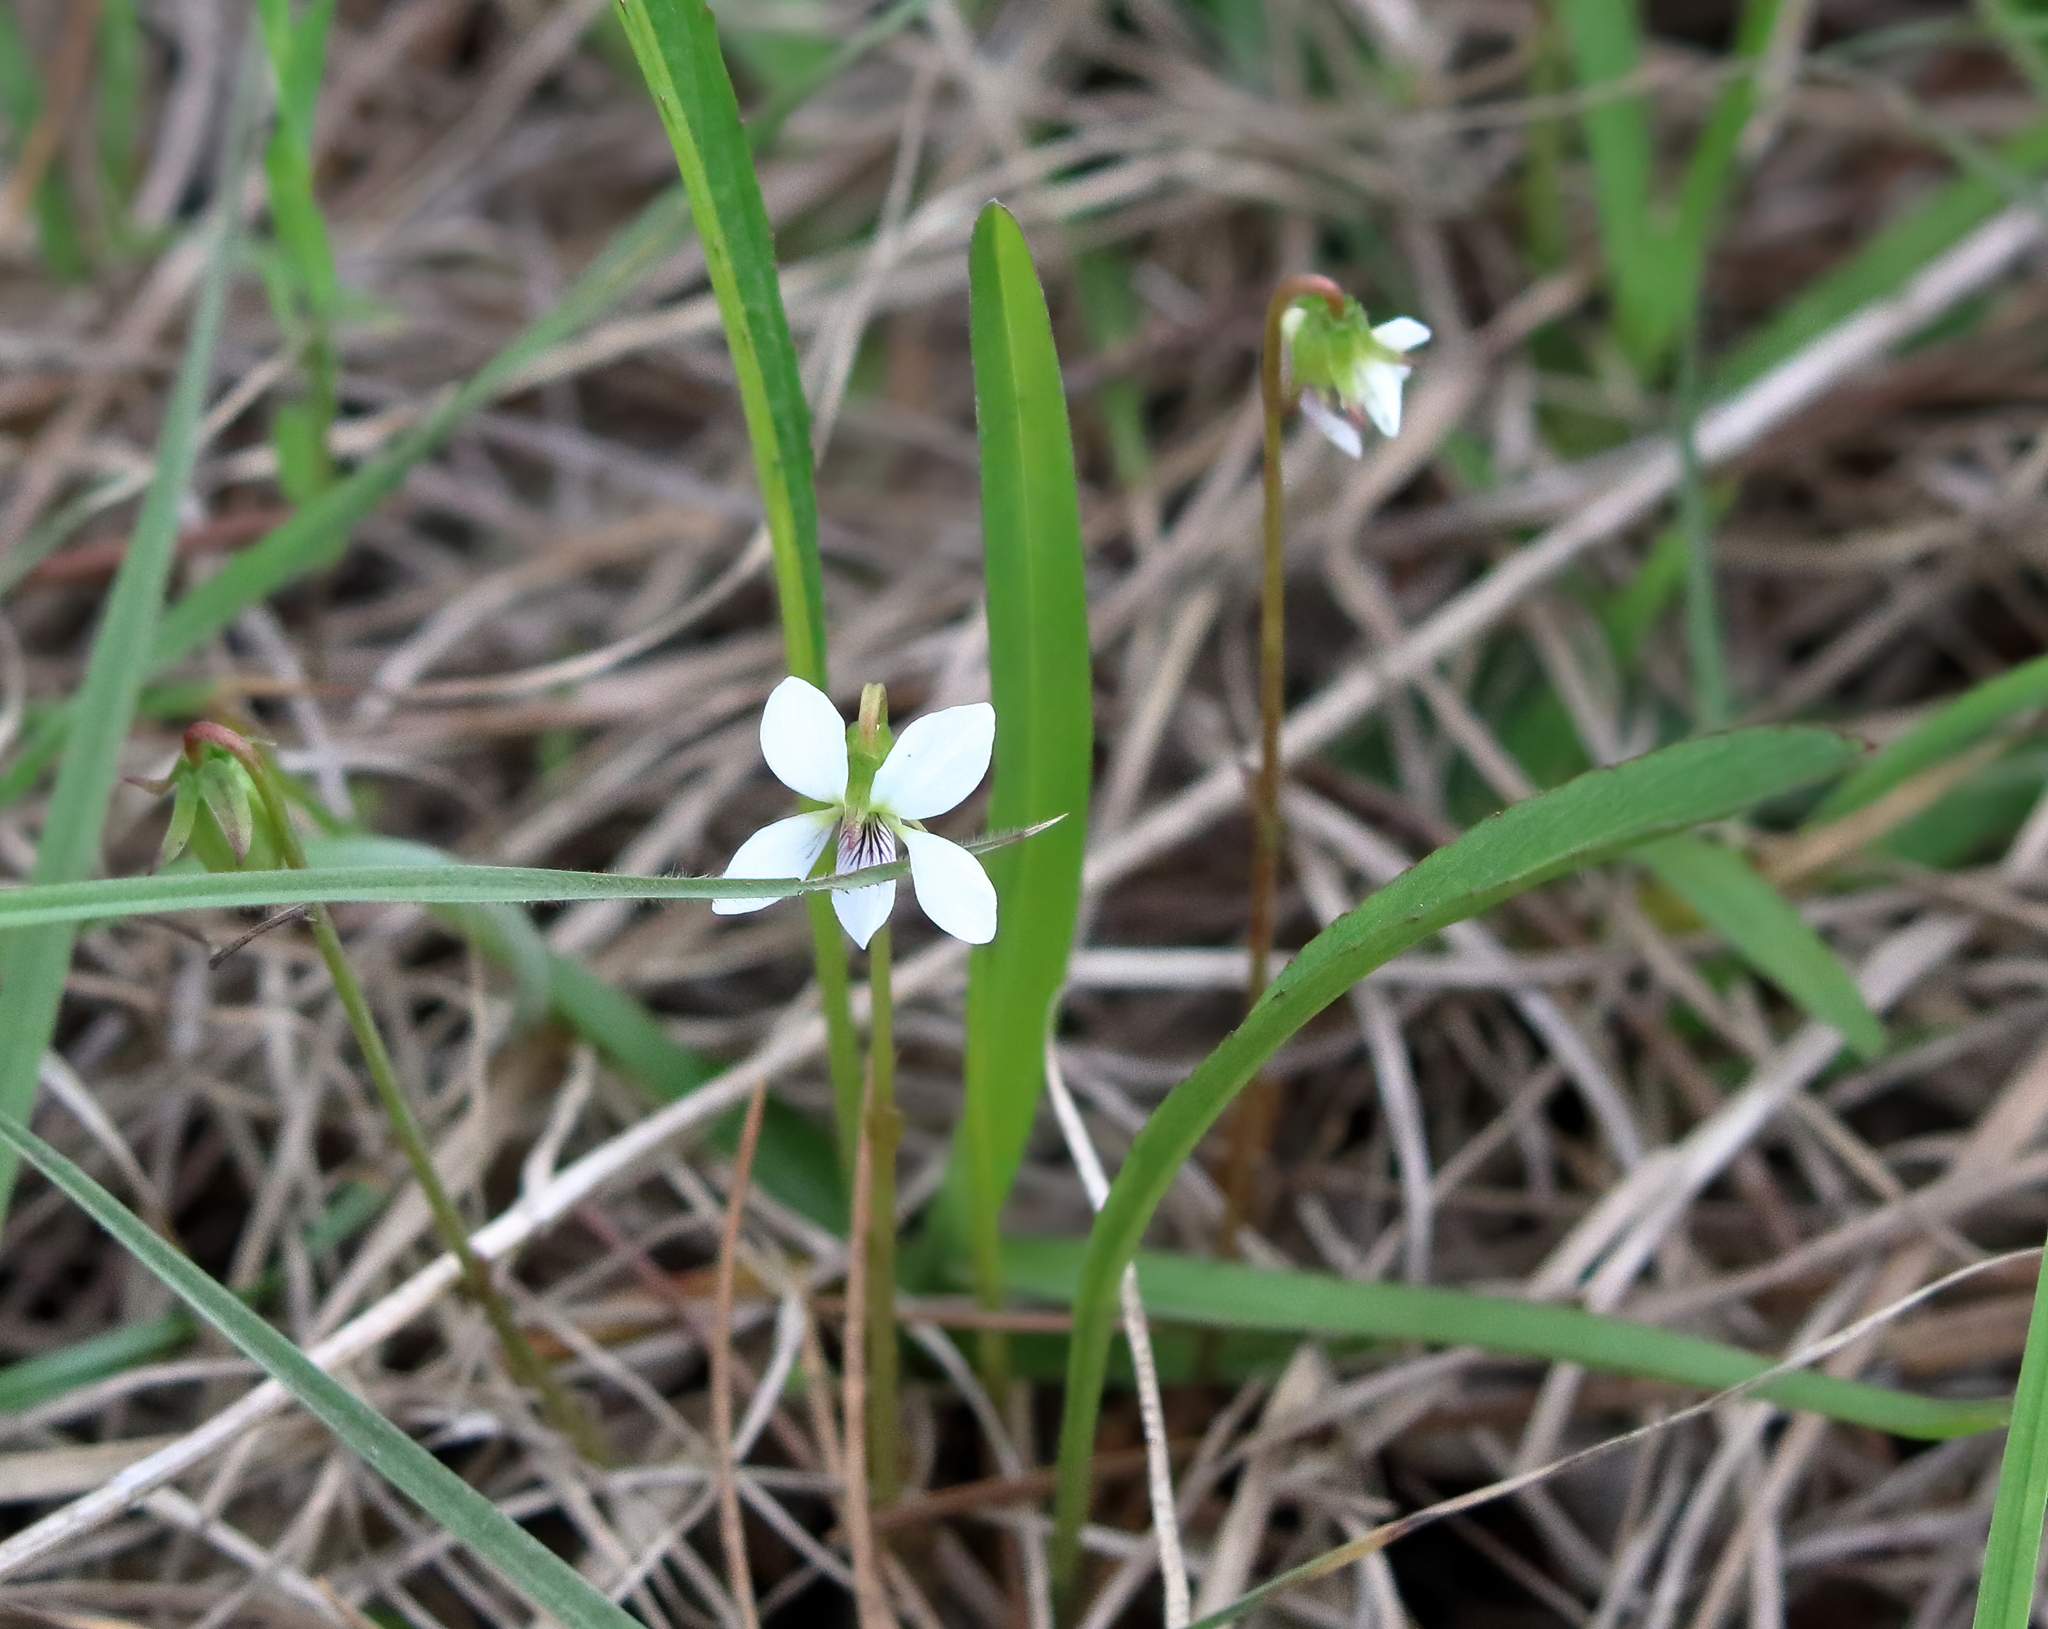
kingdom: Plantae
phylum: Tracheophyta
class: Magnoliopsida
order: Malpighiales
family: Violaceae
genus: Viola
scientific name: Viola vittata
